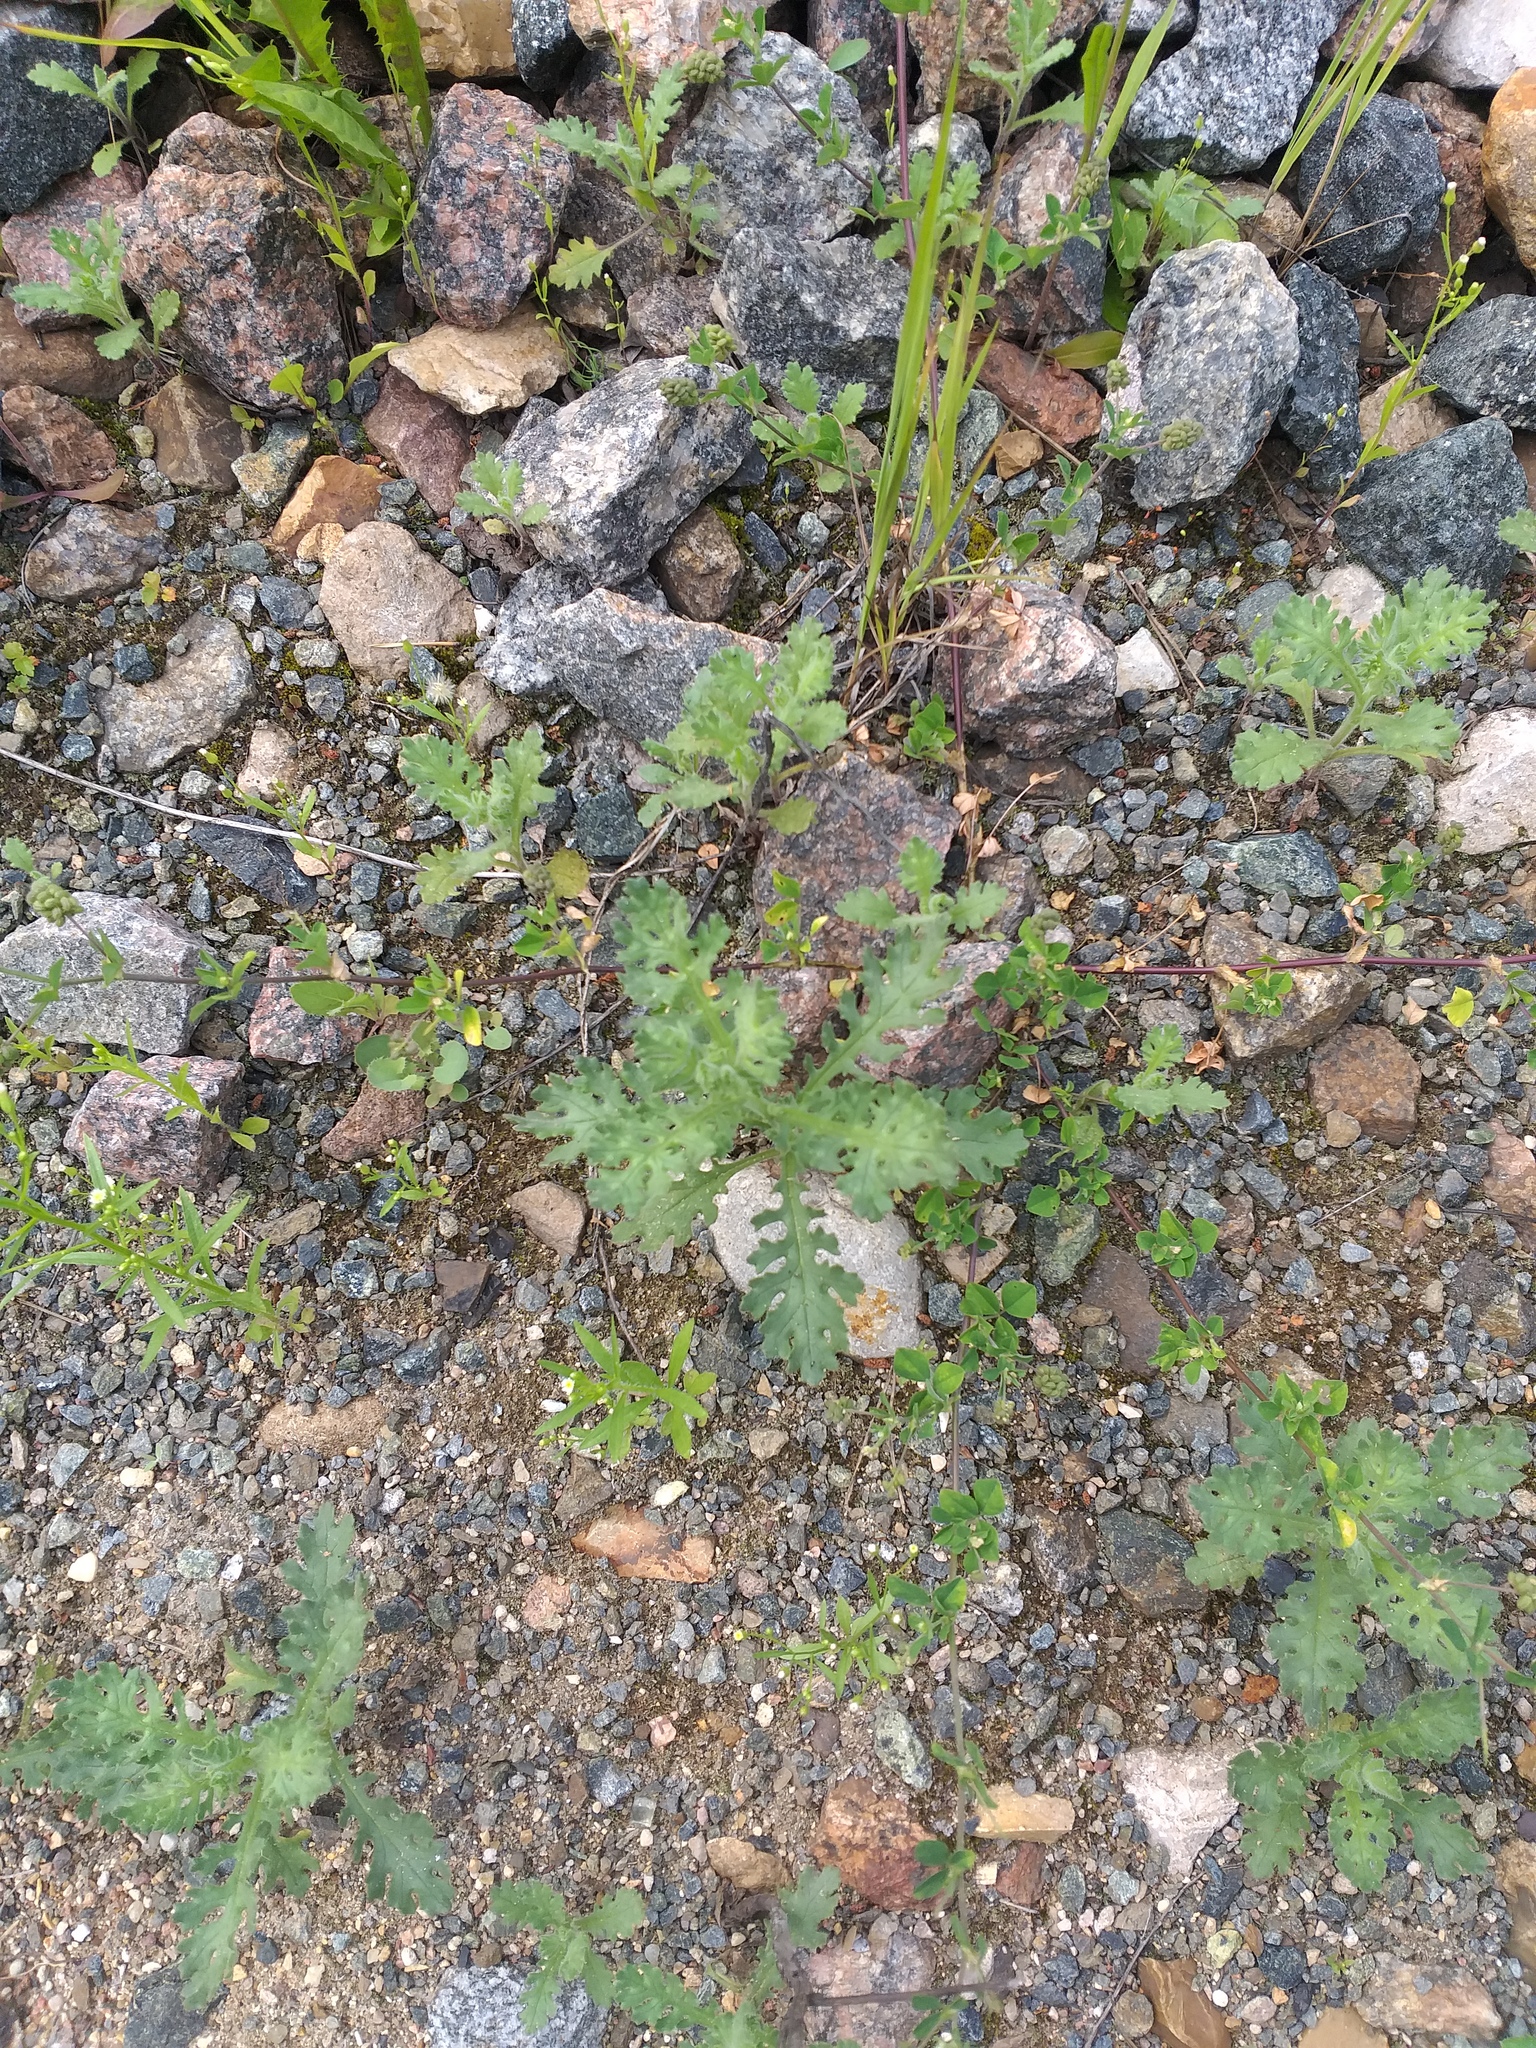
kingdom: Plantae
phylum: Tracheophyta
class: Magnoliopsida
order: Asterales
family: Asteraceae
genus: Senecio
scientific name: Senecio viscosus
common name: Sticky groundsel
